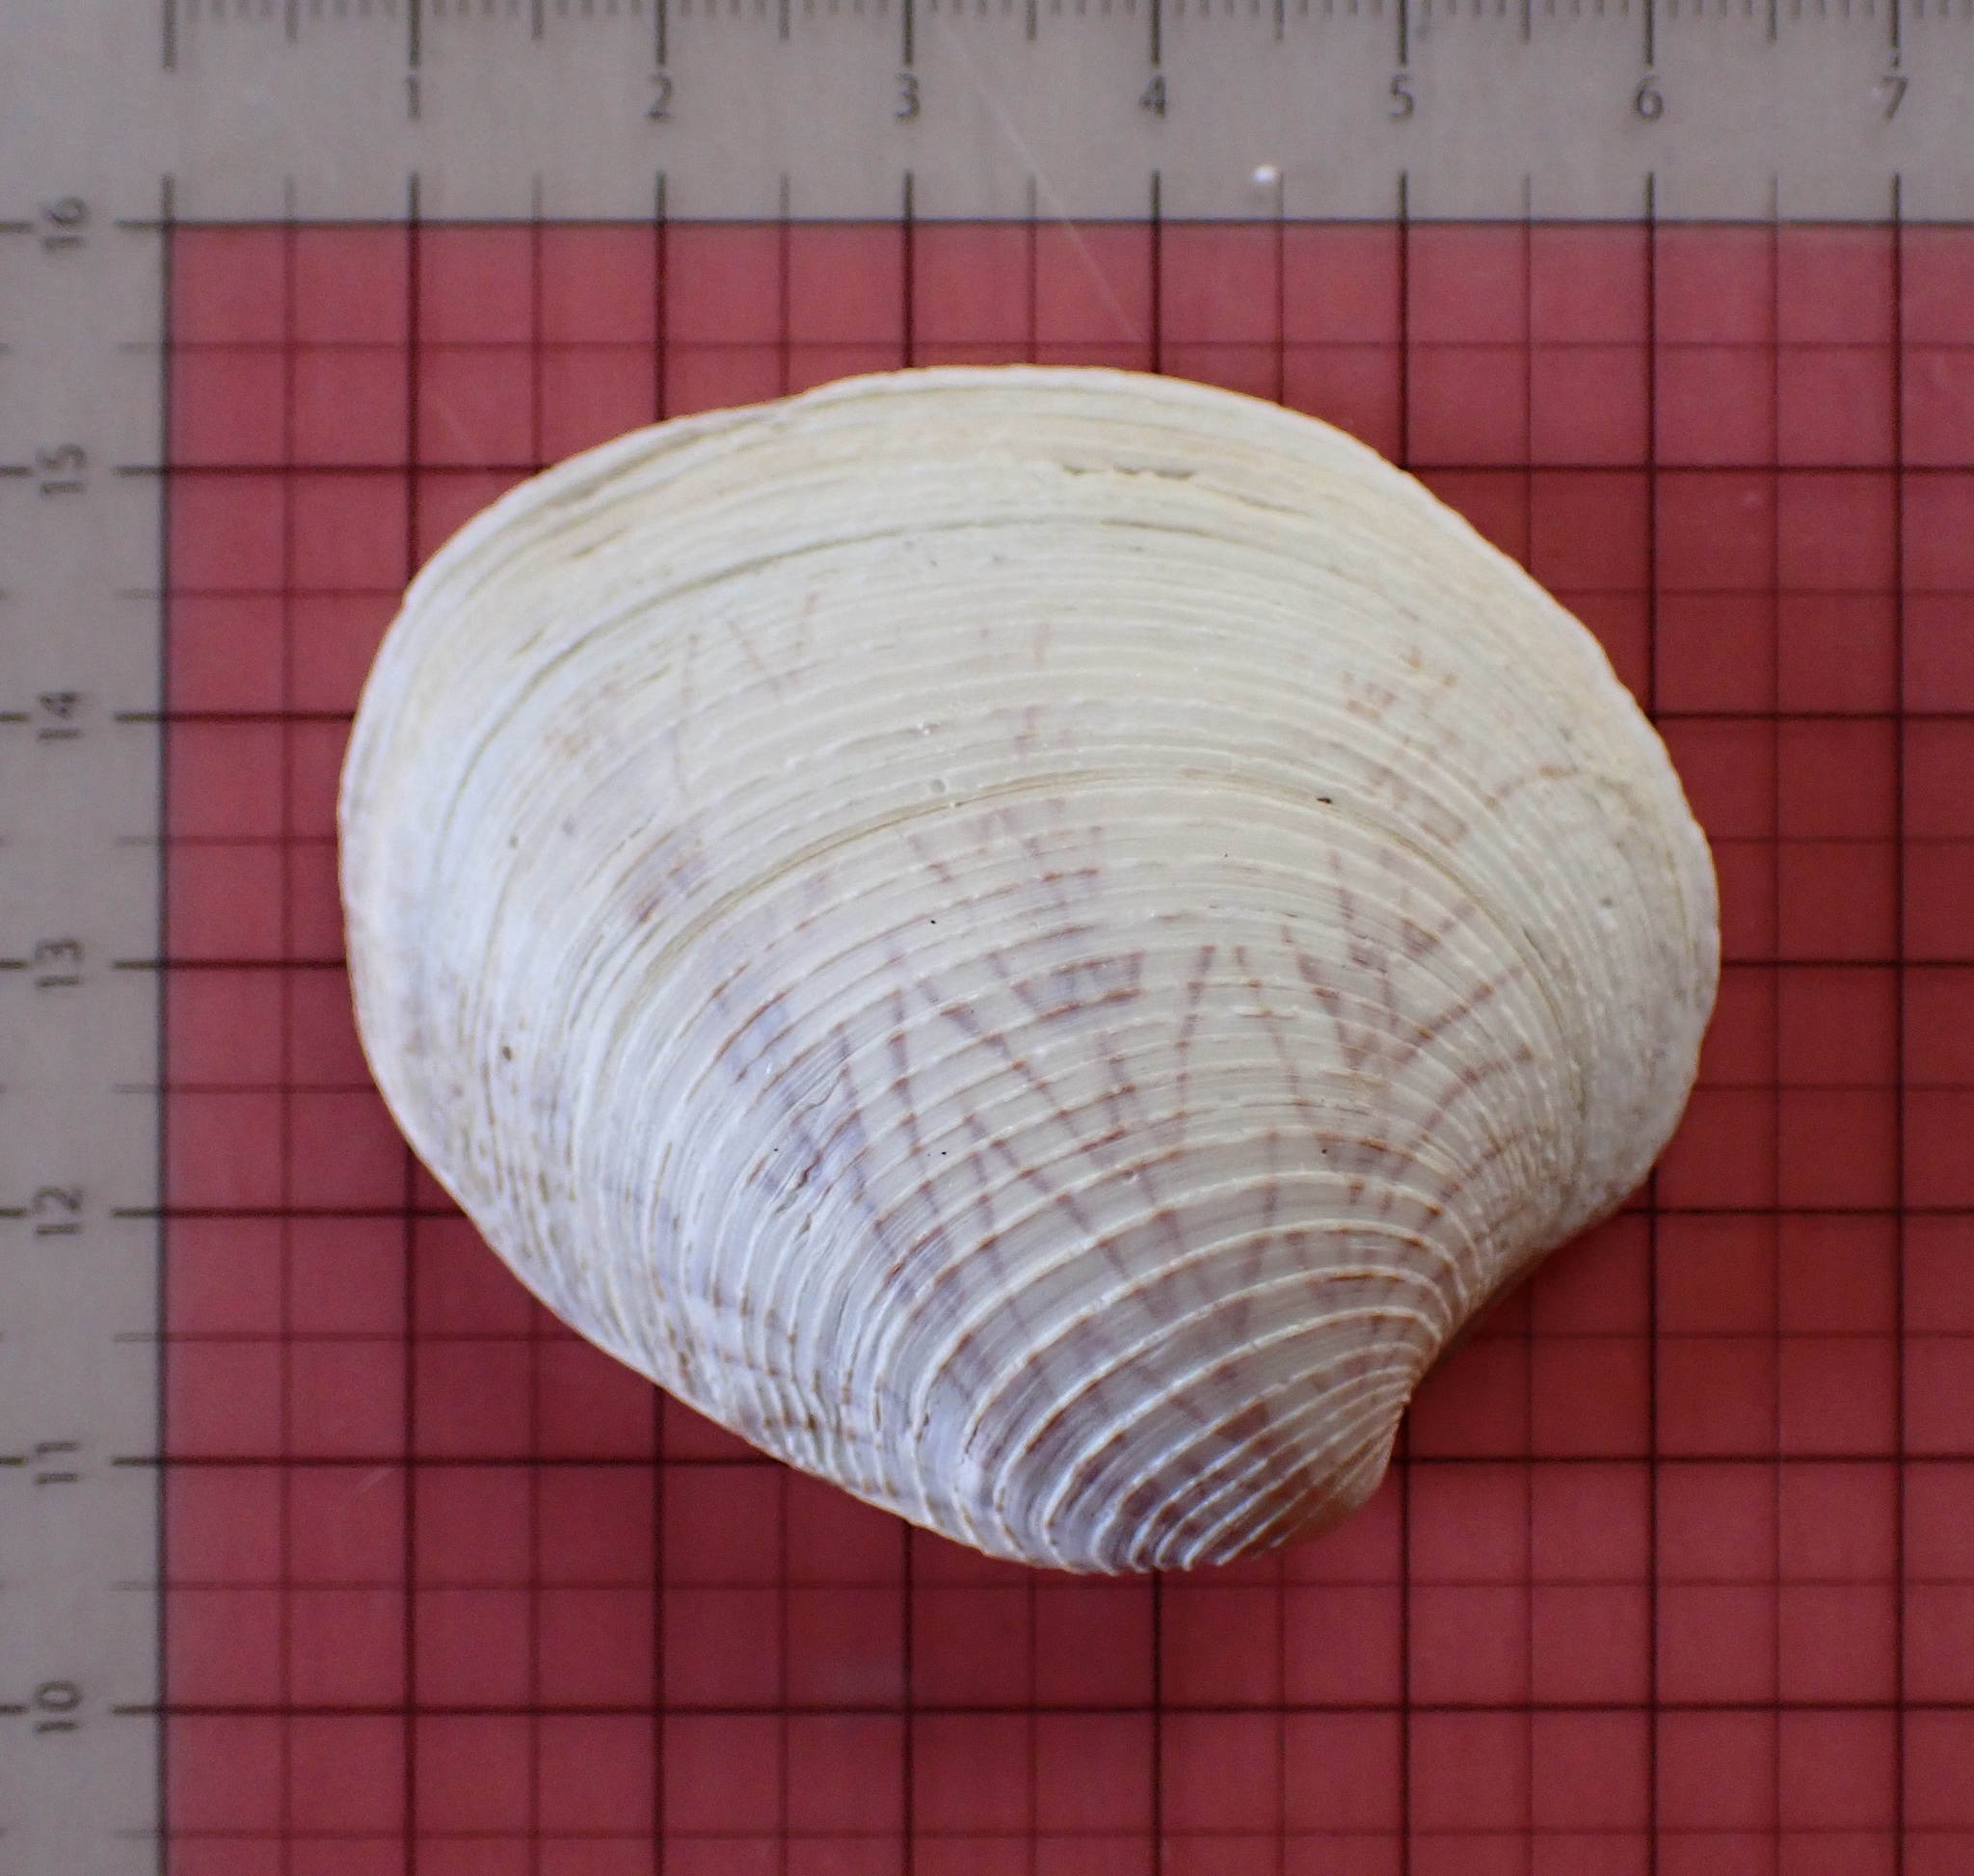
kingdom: Animalia
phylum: Mollusca
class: Bivalvia
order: Venerida
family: Veneridae
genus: Mercenaria
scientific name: Mercenaria campechiensis
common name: Südliche quahog-muschel
